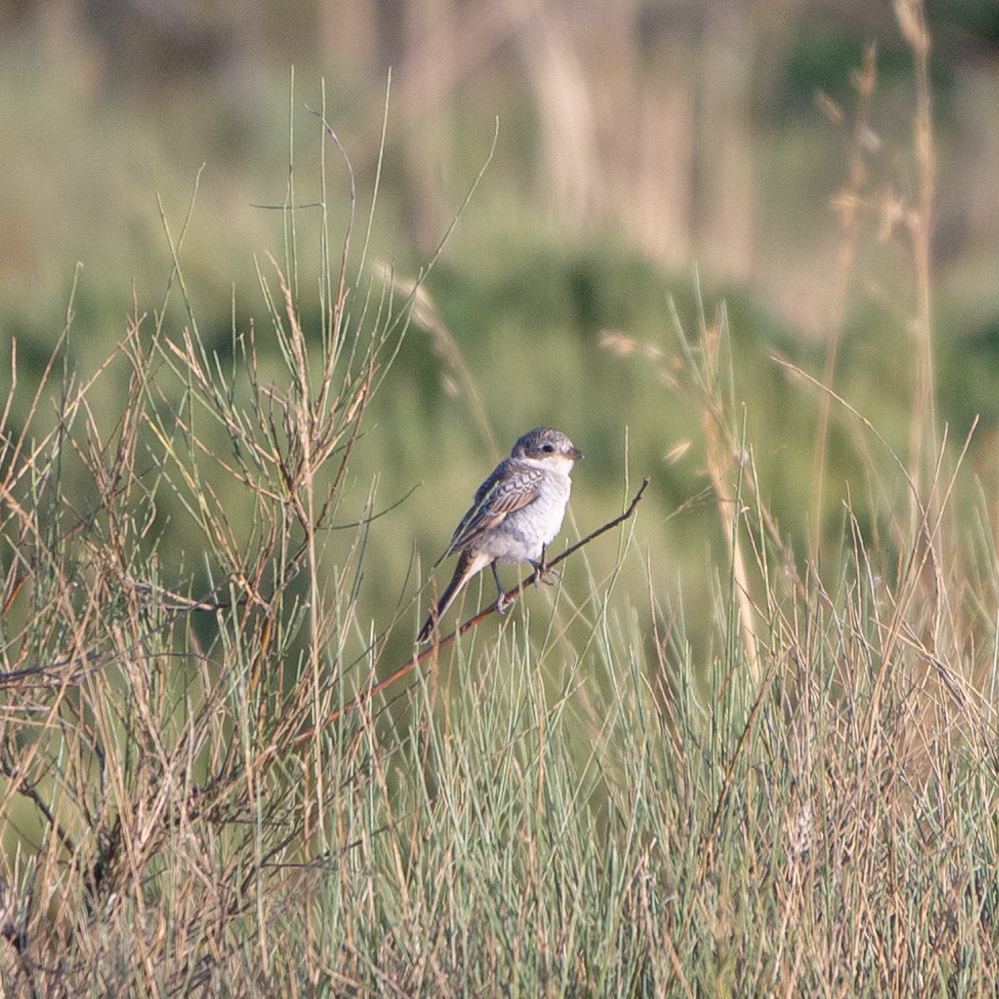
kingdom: Animalia
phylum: Chordata
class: Aves
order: Passeriformes
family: Laniidae
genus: Lanius
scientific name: Lanius senator
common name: Woodchat shrike
